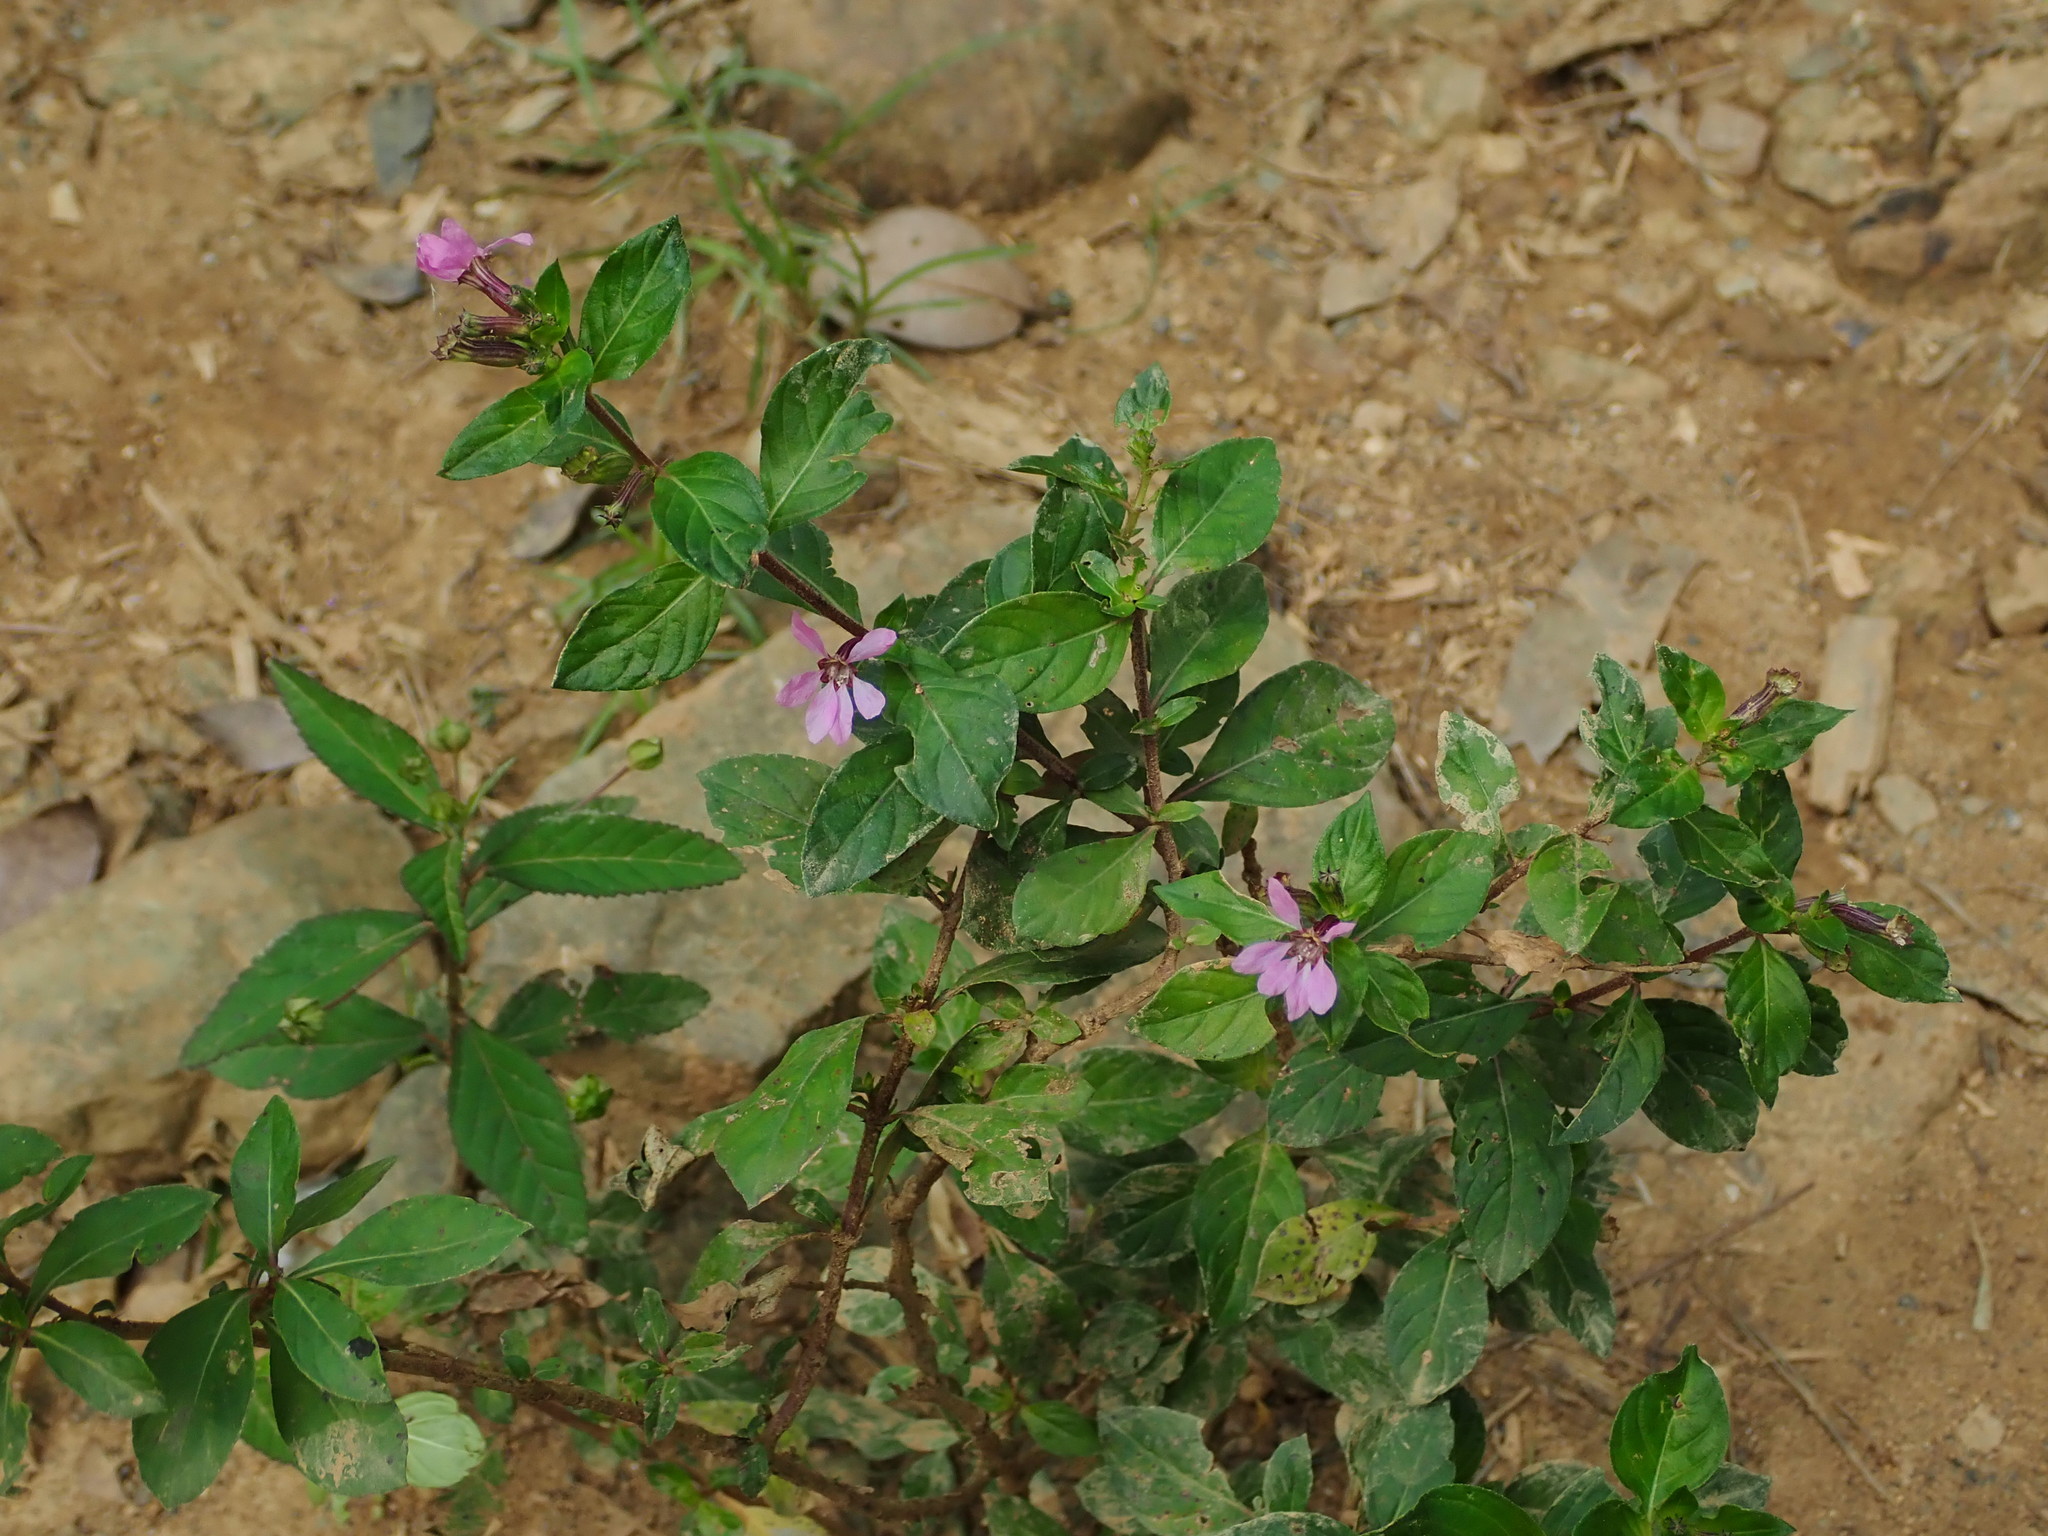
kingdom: Plantae
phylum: Tracheophyta
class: Magnoliopsida
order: Myrtales
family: Lythraceae
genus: Cuphea
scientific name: Cuphea strigulosa
